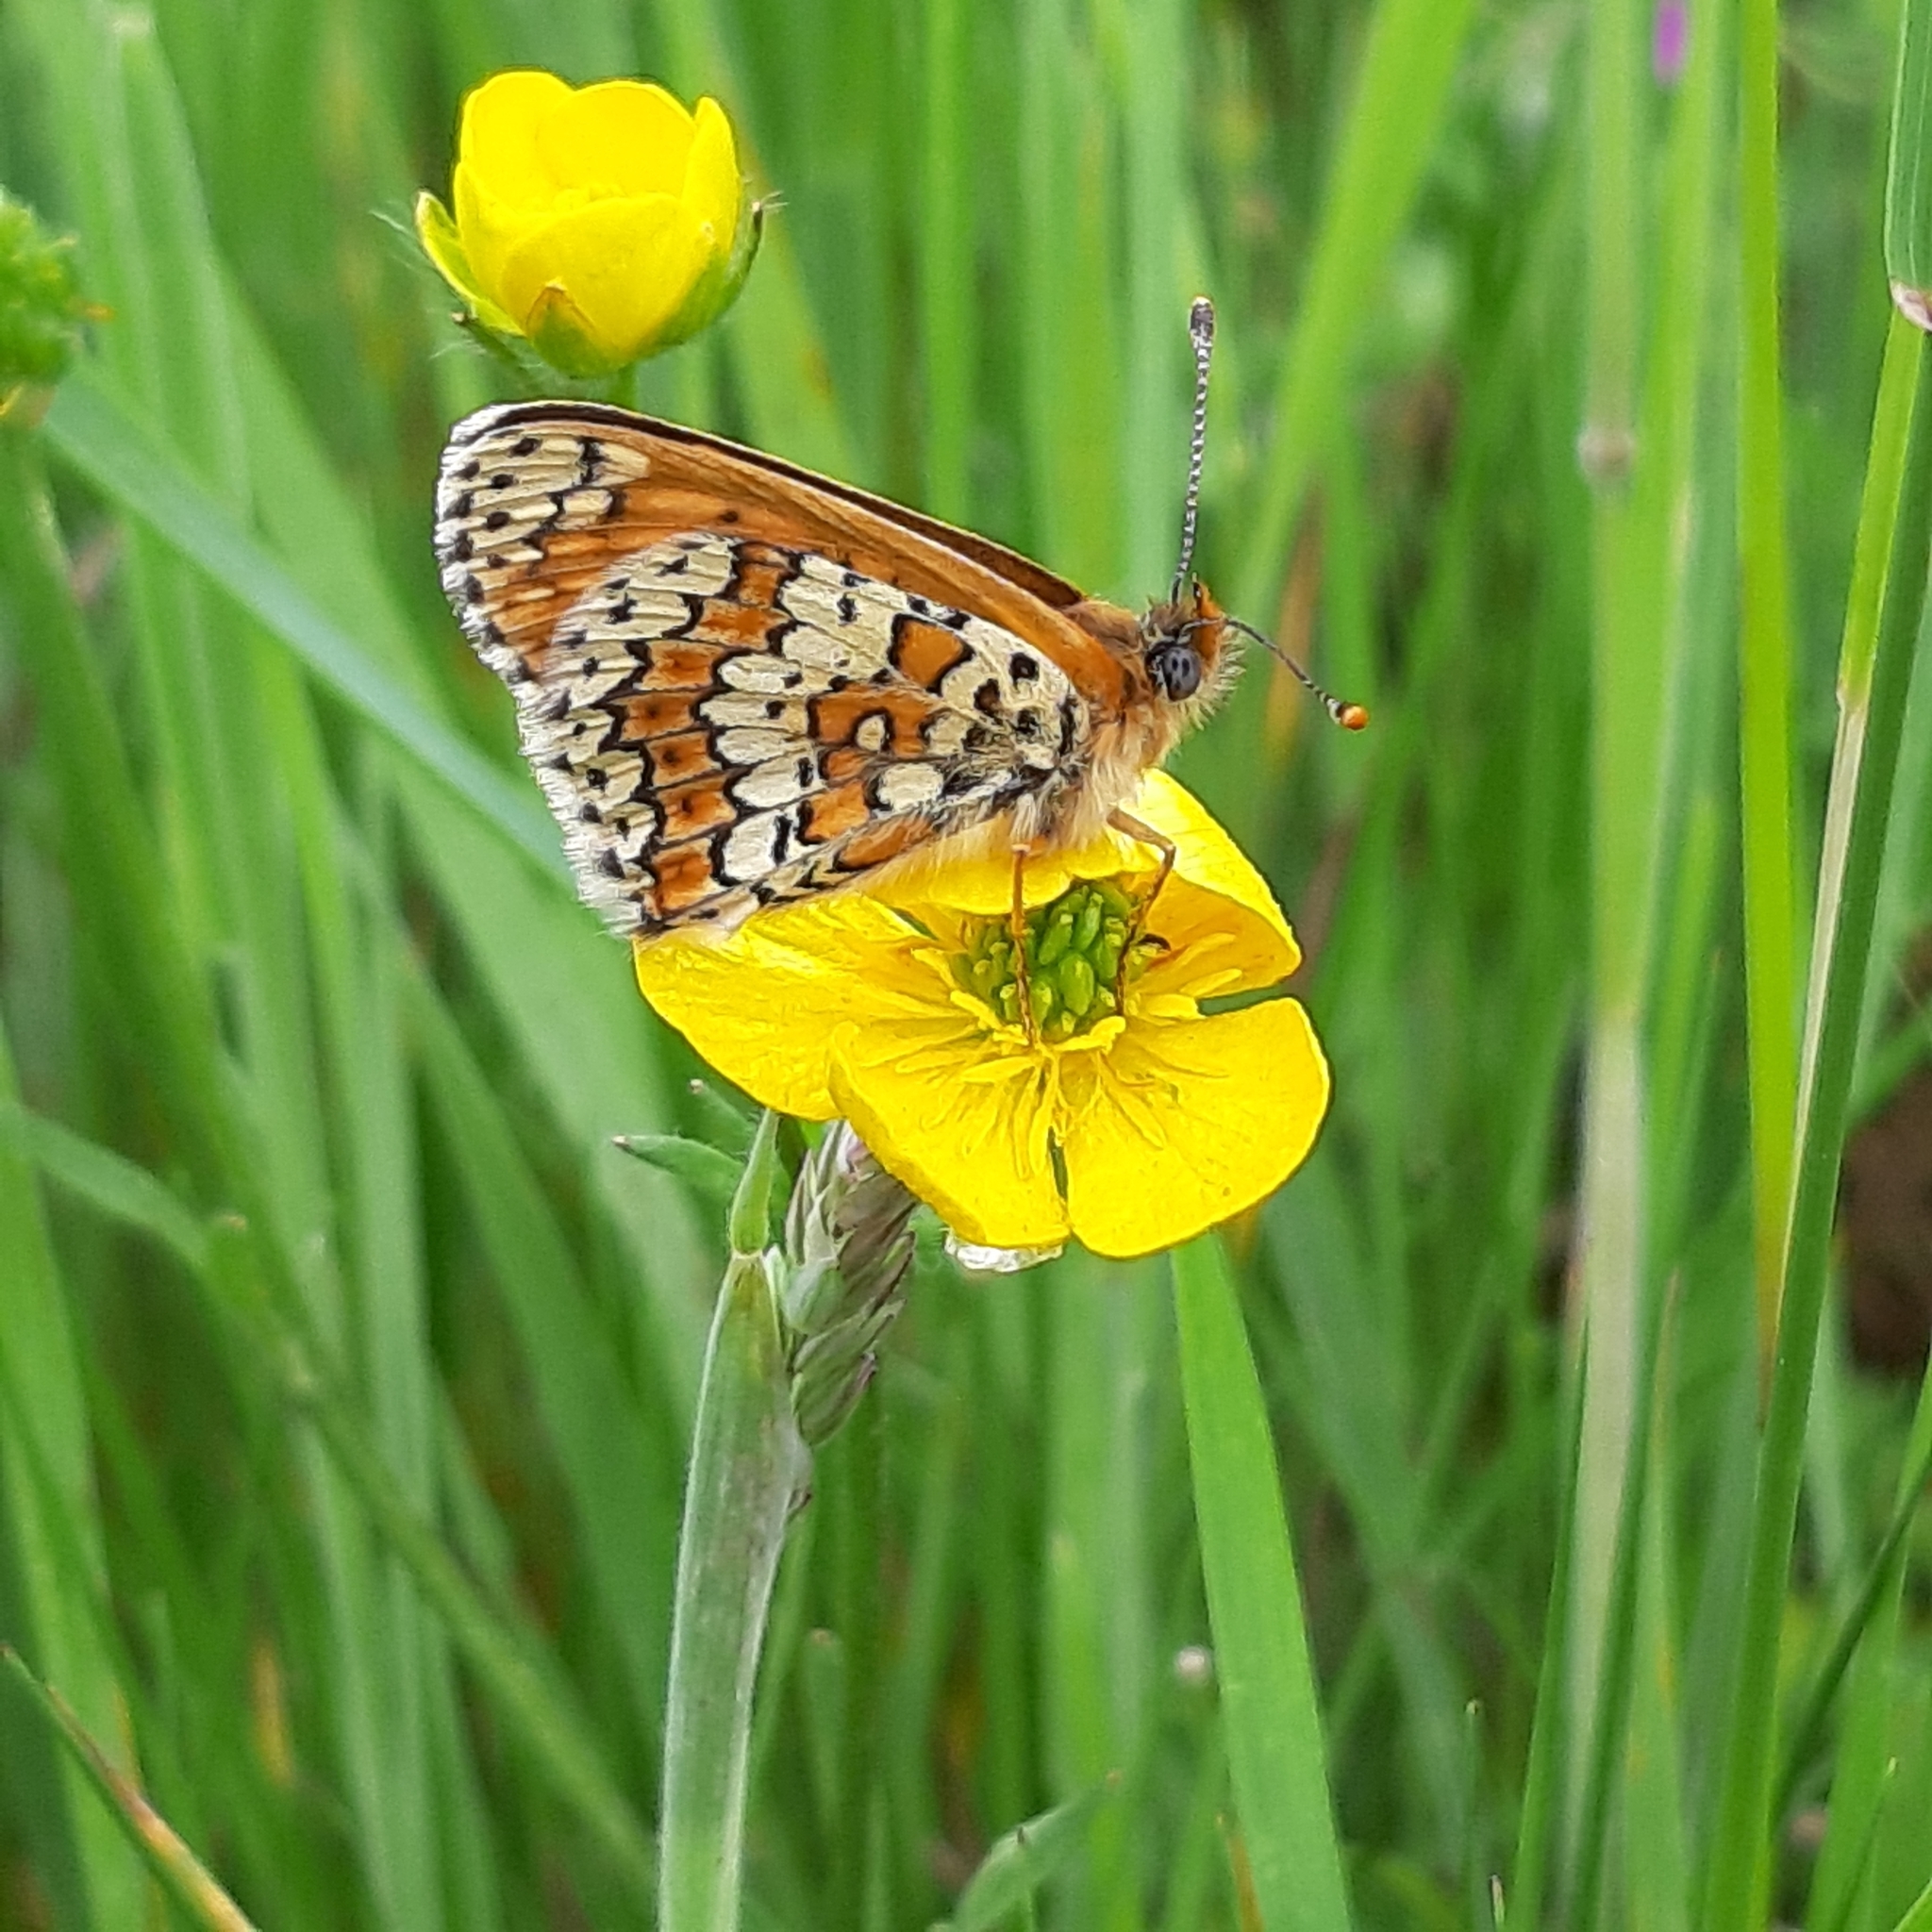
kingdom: Animalia
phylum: Arthropoda
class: Insecta
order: Lepidoptera
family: Nymphalidae
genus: Melitaea
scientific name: Melitaea cinxia
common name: Glanville fritillary
